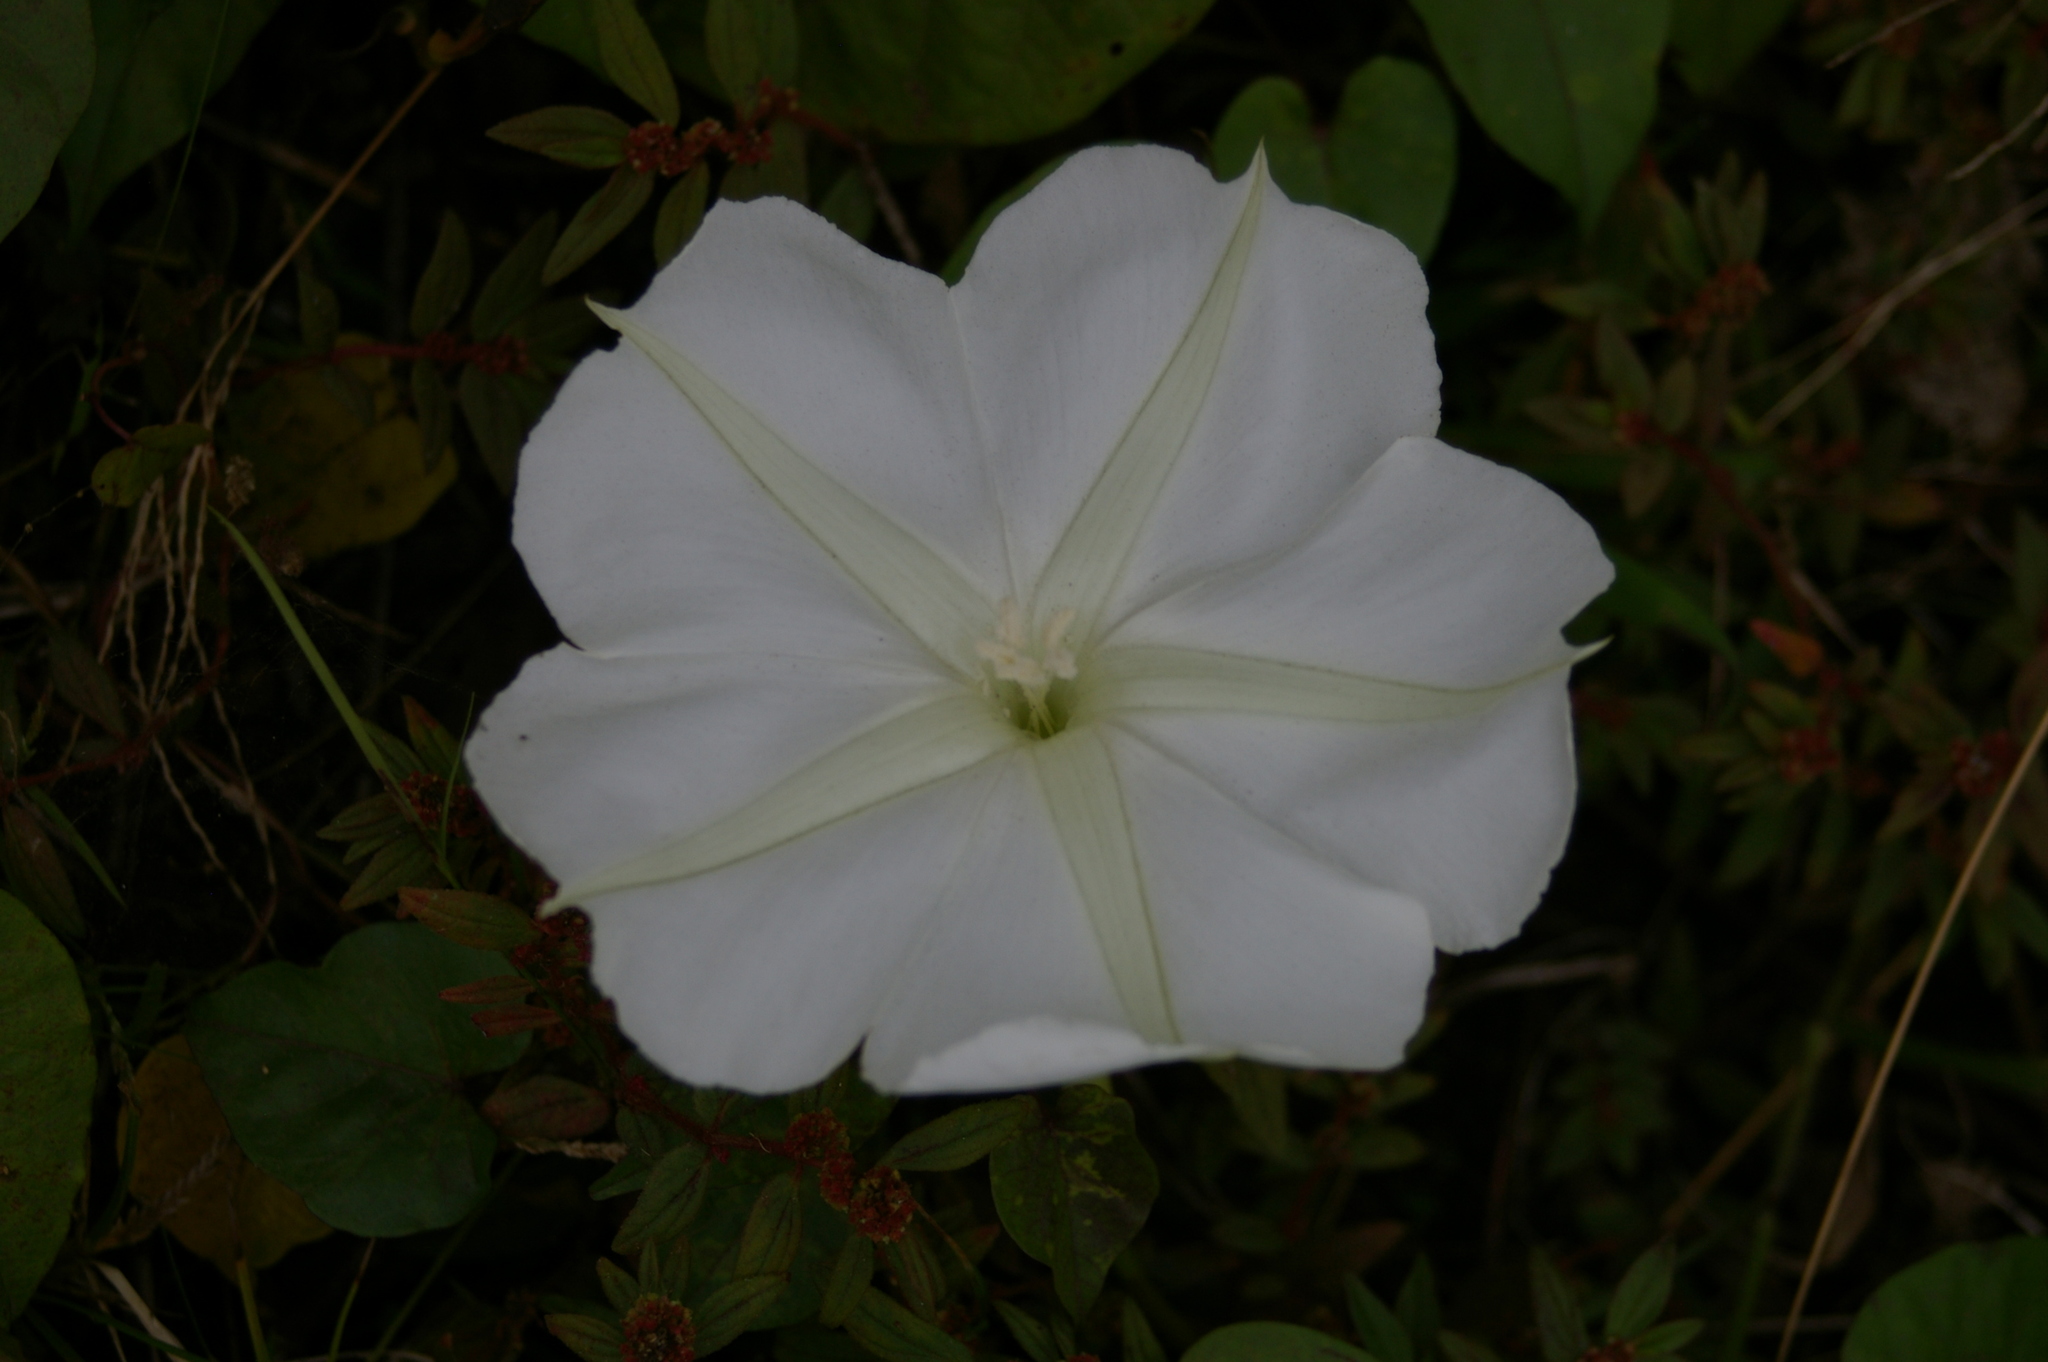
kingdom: Plantae
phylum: Tracheophyta
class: Magnoliopsida
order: Solanales
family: Convolvulaceae
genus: Ipomoea
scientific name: Ipomoea alba
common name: Moonflower
